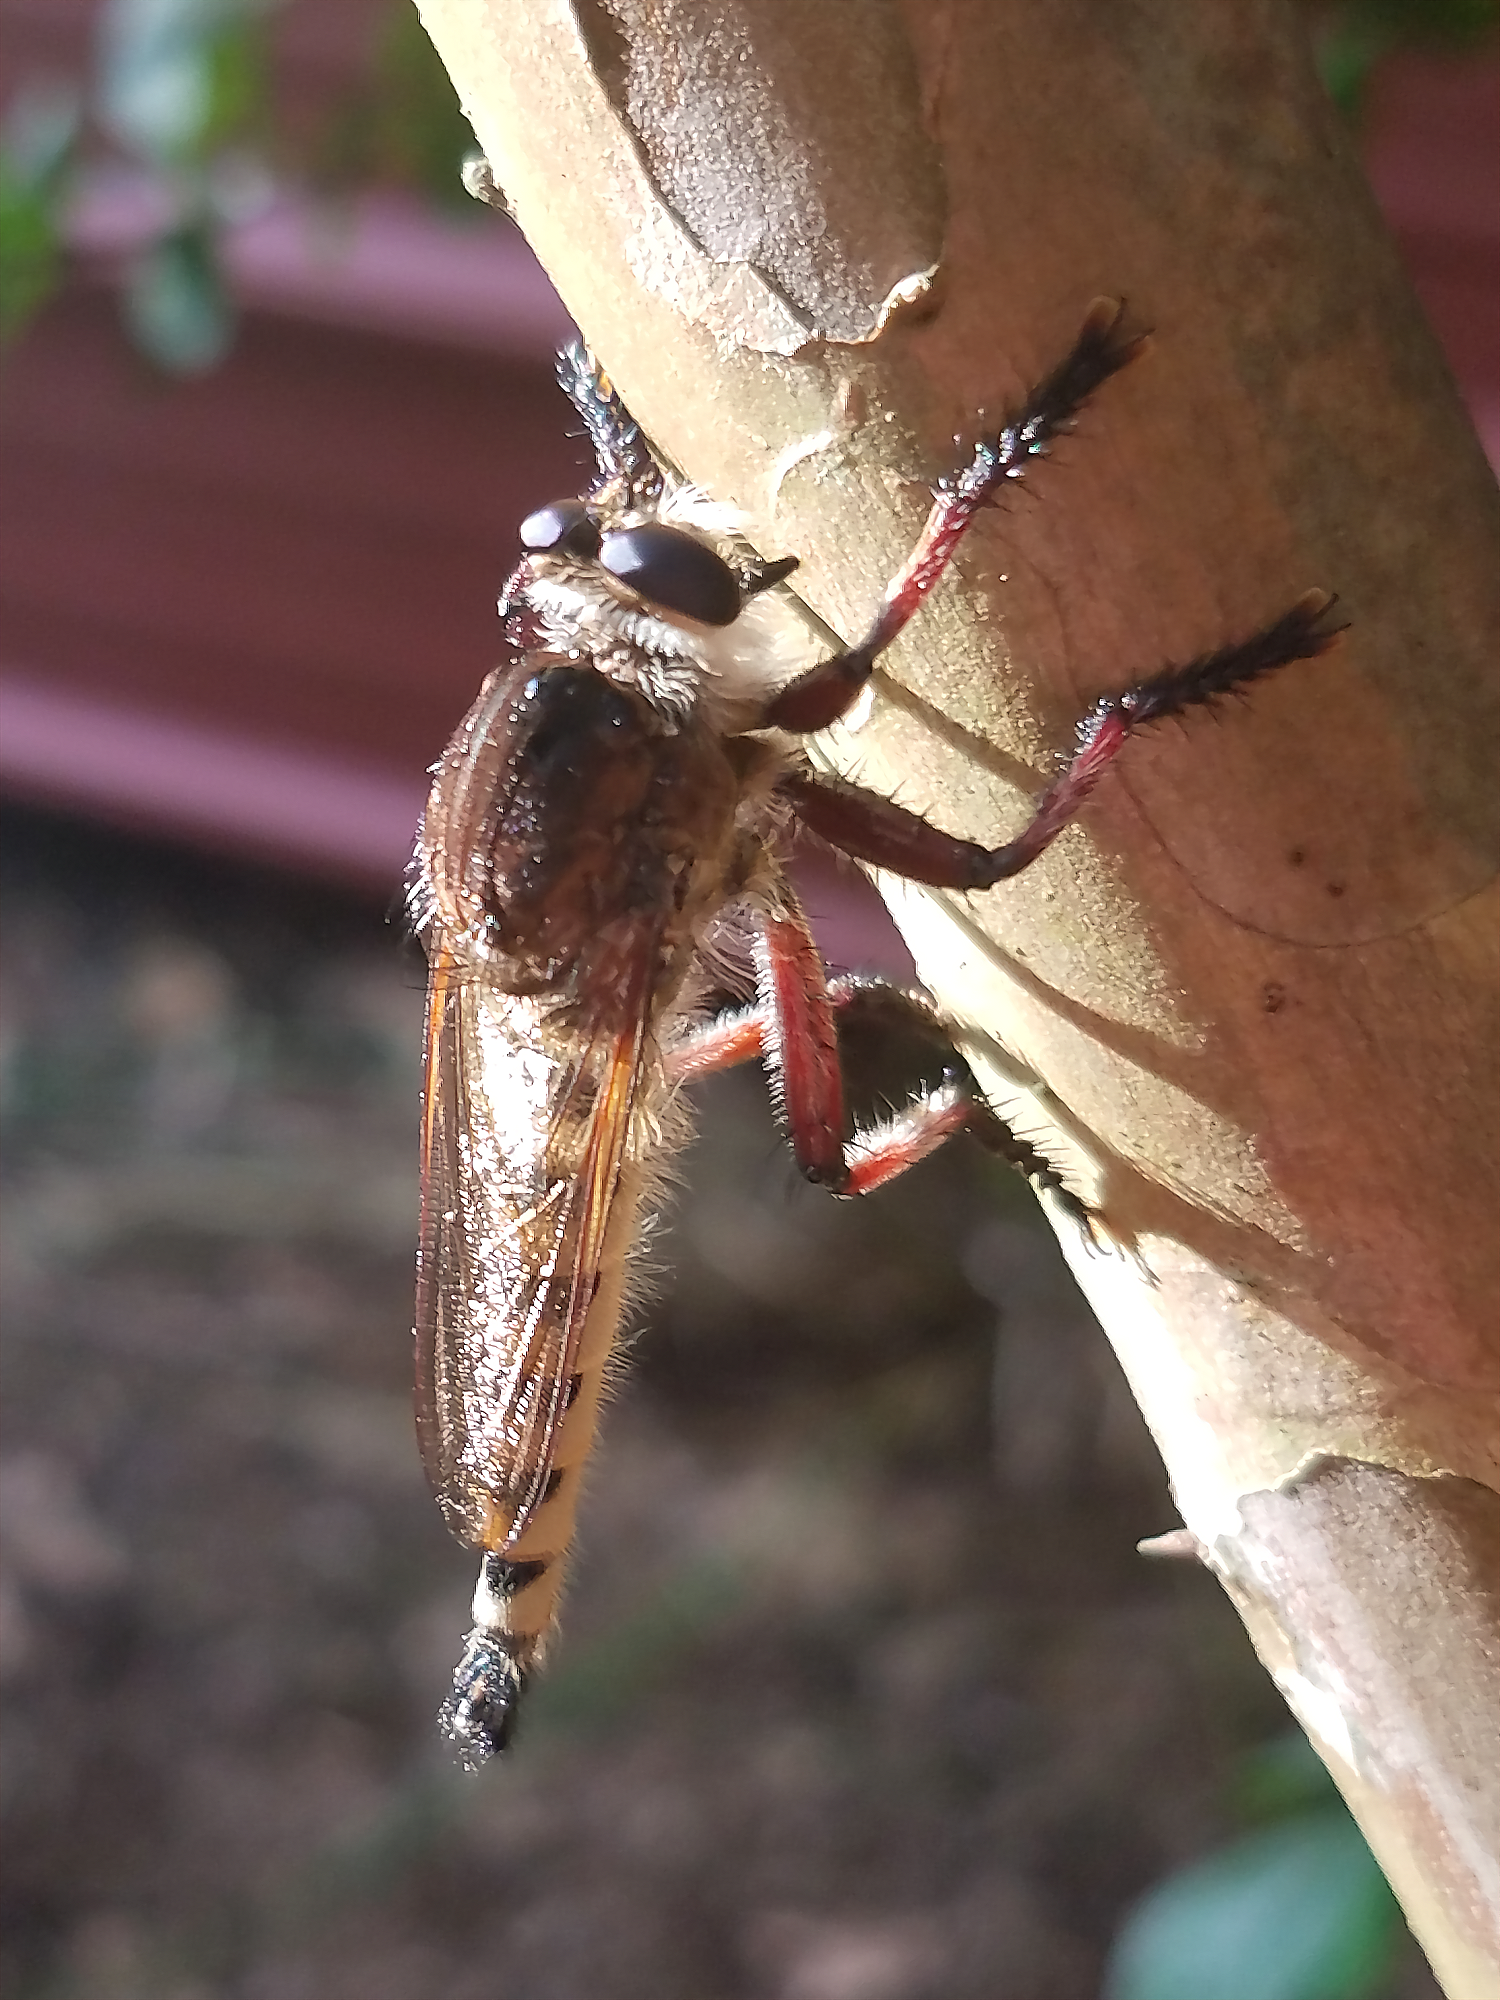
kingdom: Animalia
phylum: Arthropoda
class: Insecta
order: Diptera
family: Asilidae
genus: Promachus
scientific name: Promachus hinei
